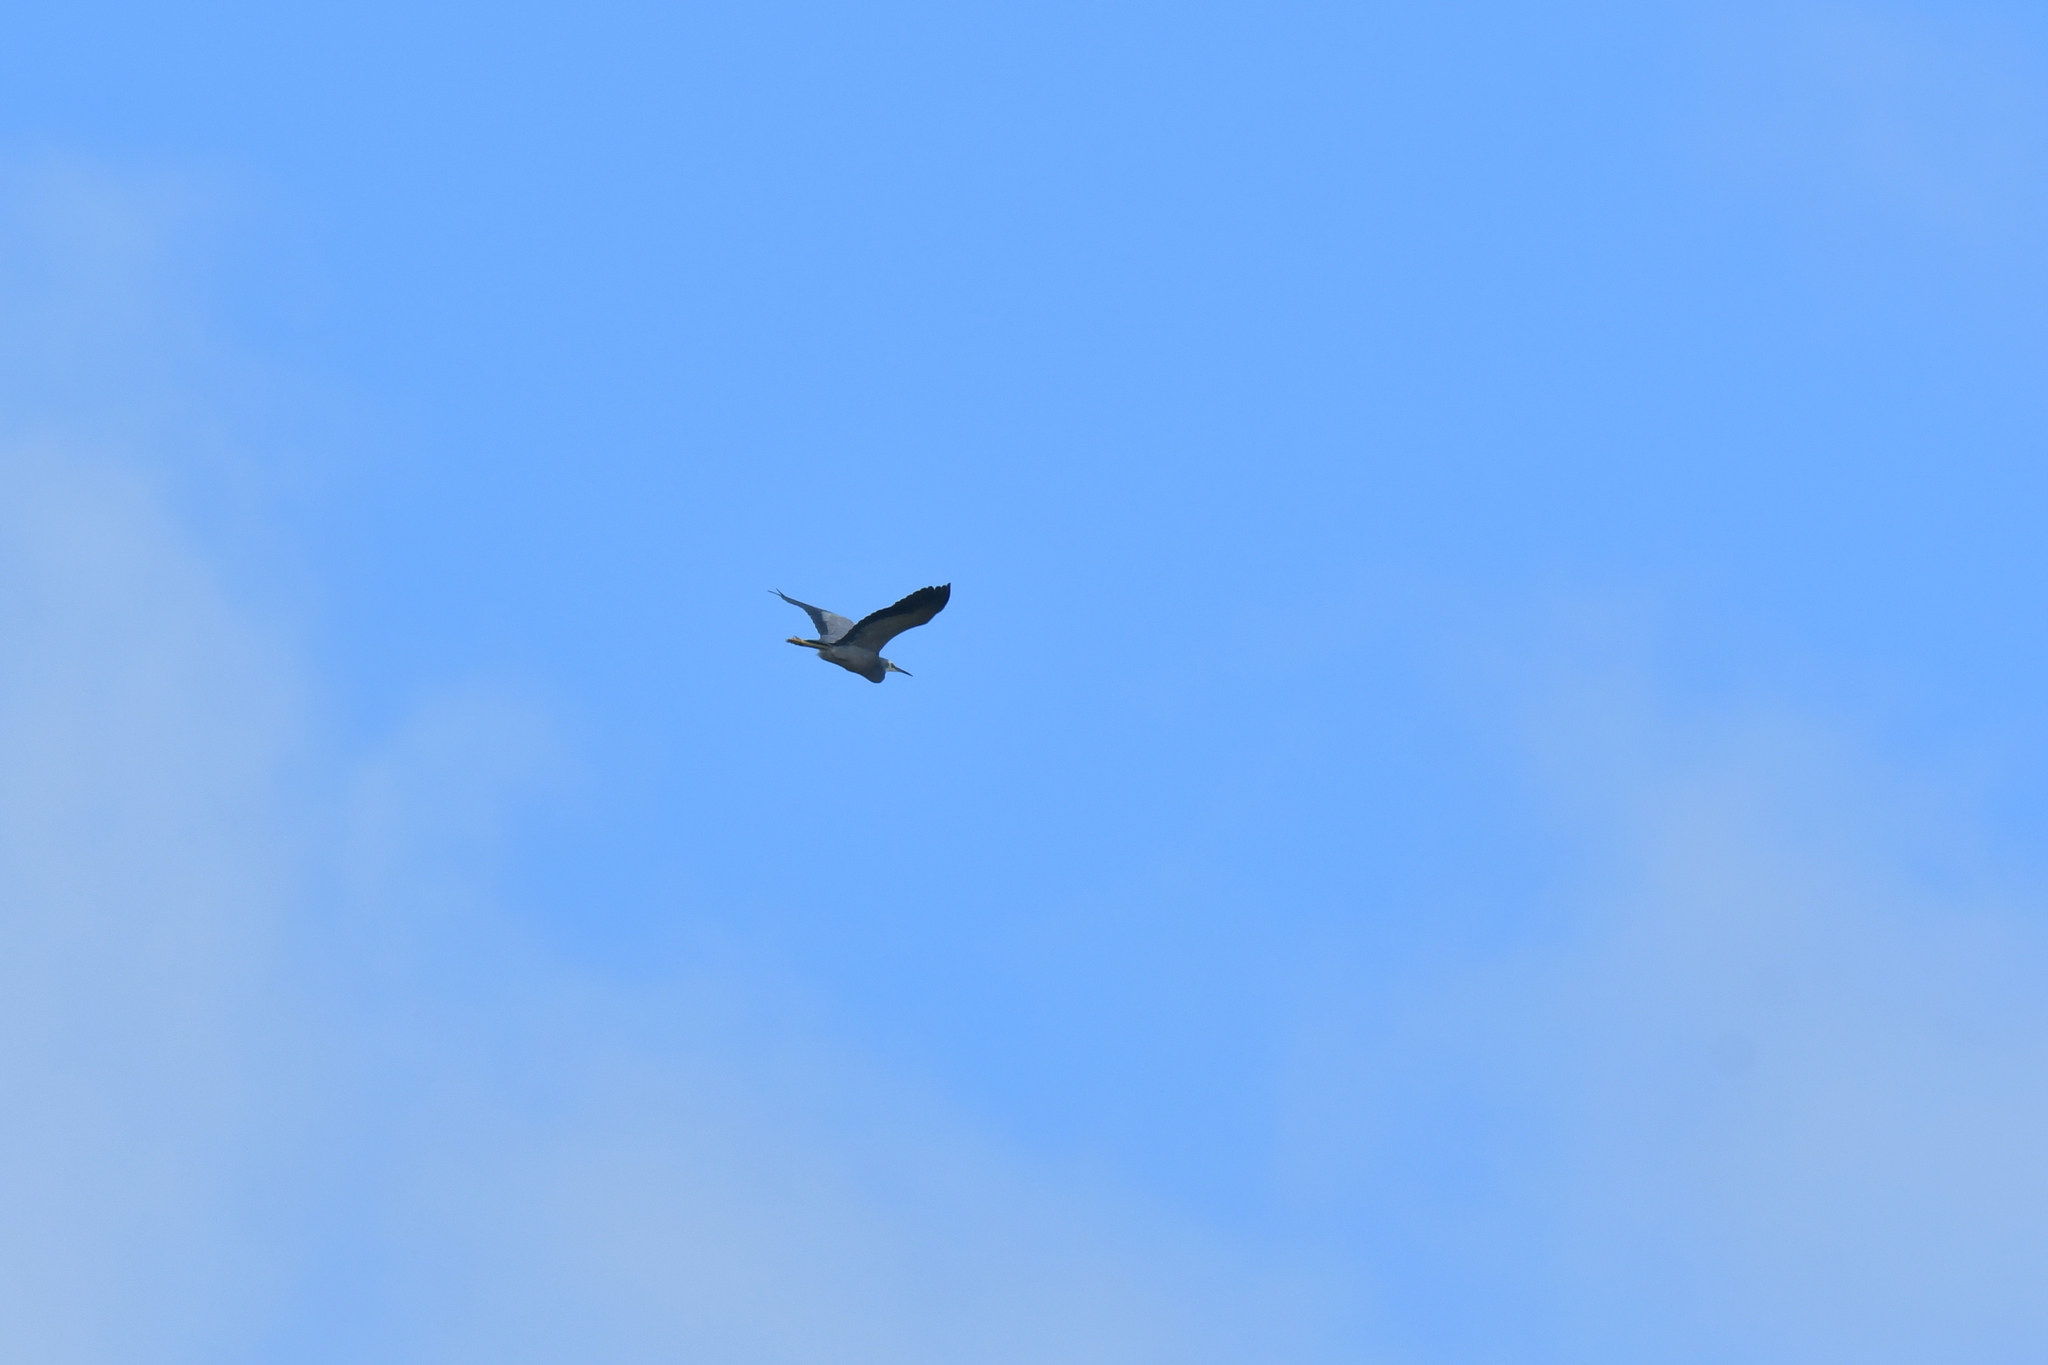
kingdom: Animalia
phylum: Chordata
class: Aves
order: Pelecaniformes
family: Ardeidae
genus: Egretta
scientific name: Egretta novaehollandiae
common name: White-faced heron
